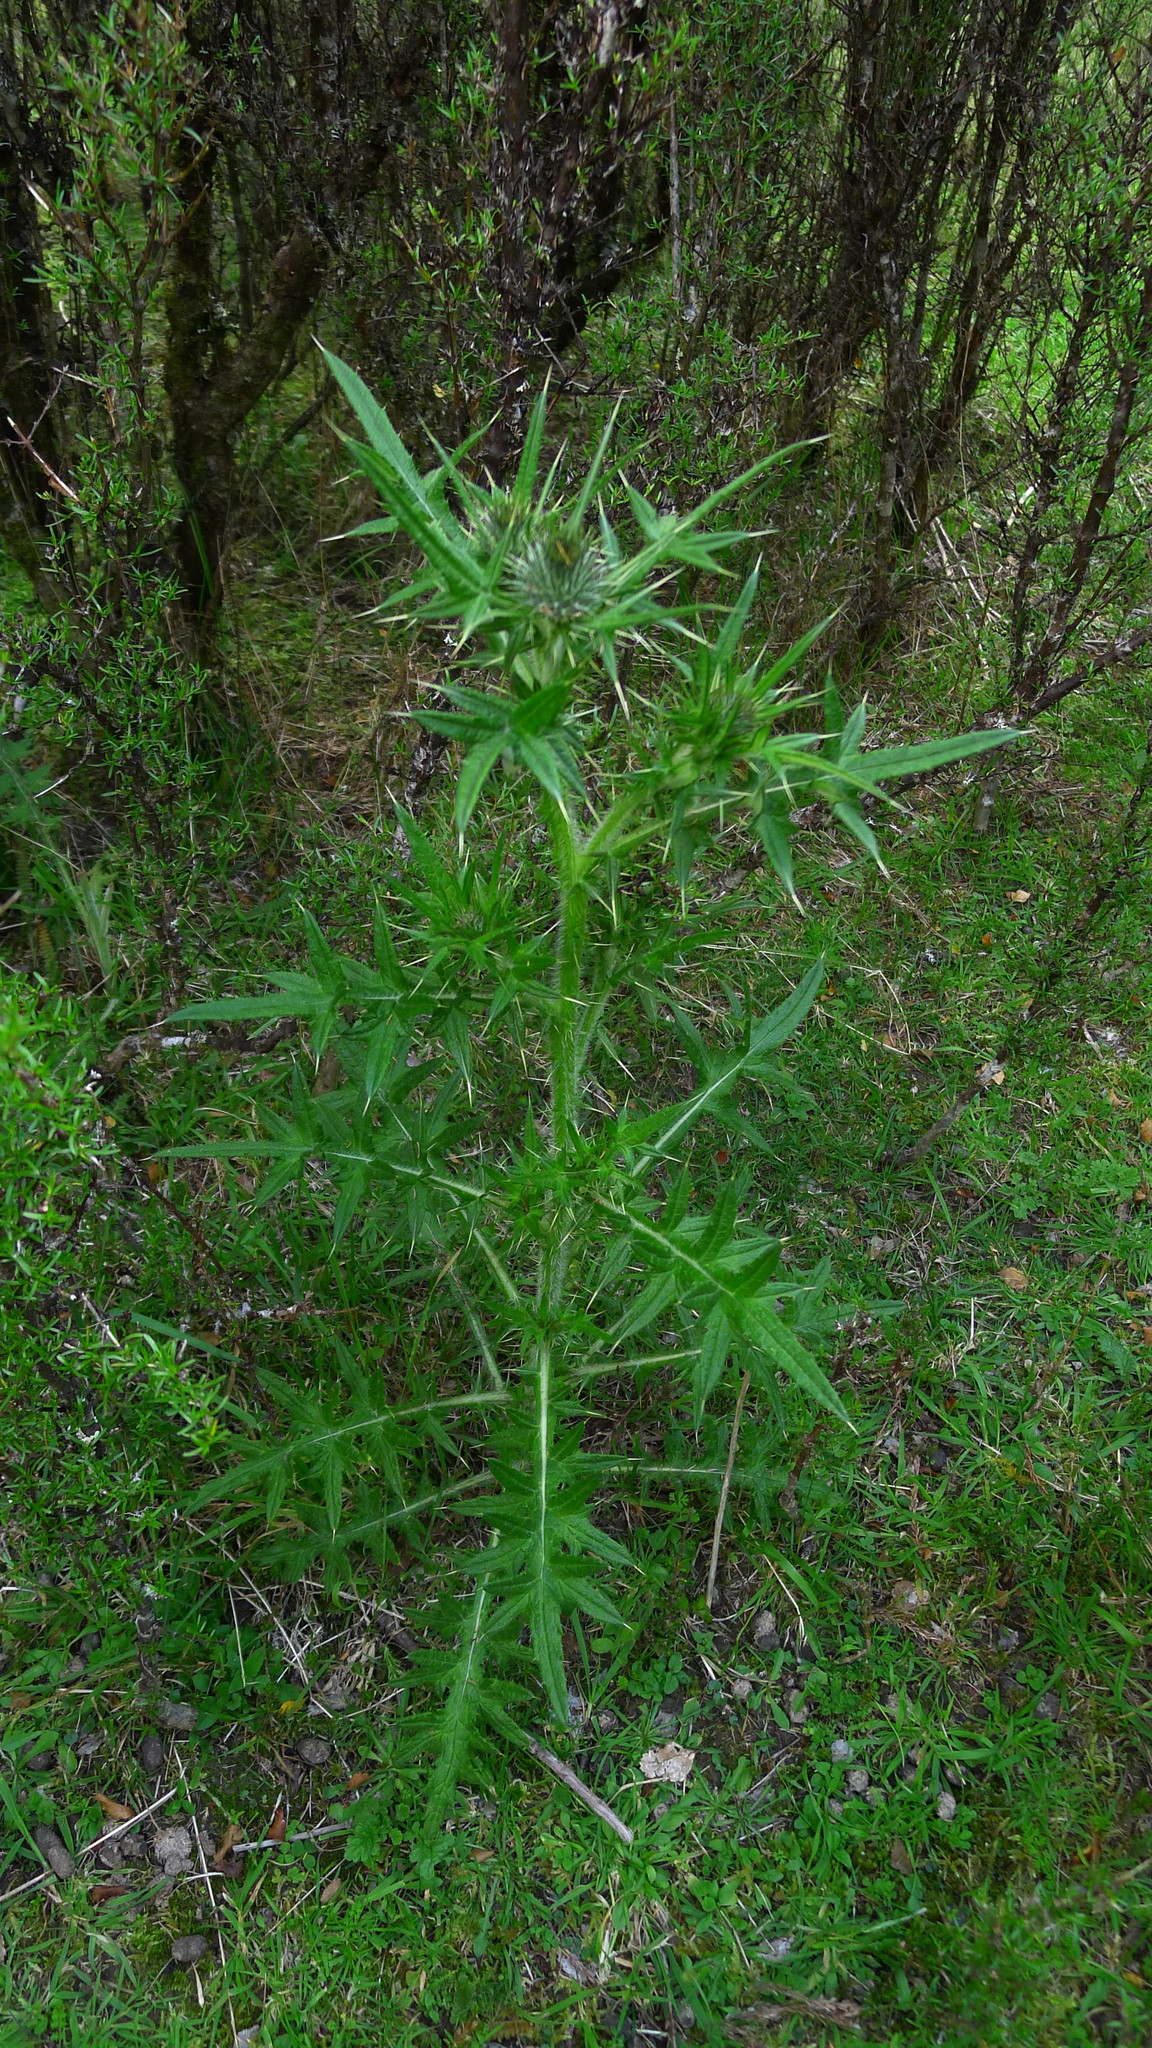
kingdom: Plantae
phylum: Tracheophyta
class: Magnoliopsida
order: Asterales
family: Asteraceae
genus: Cirsium
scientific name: Cirsium vulgare
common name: Bull thistle
